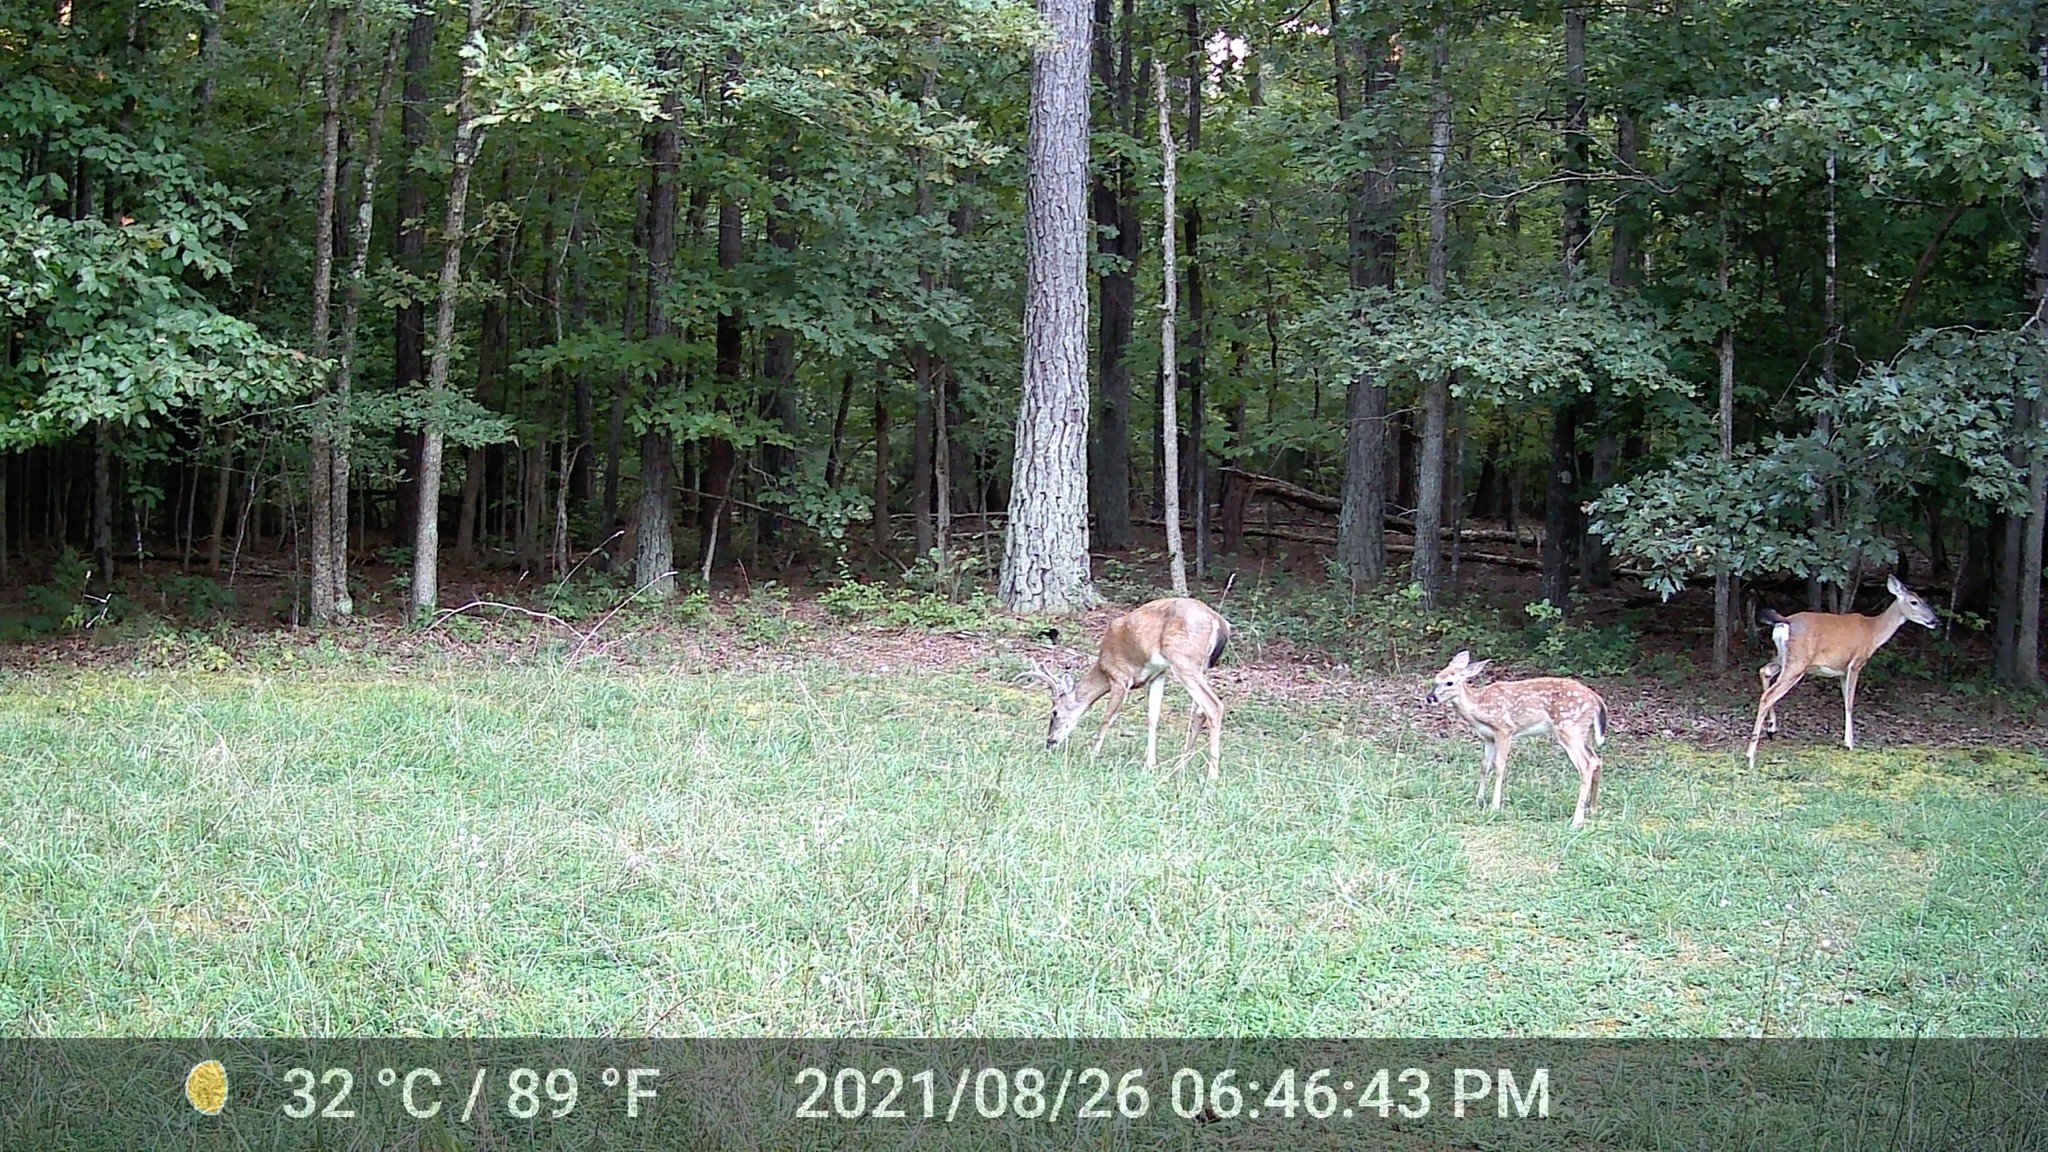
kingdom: Animalia
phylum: Chordata
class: Mammalia
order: Artiodactyla
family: Cervidae
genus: Odocoileus
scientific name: Odocoileus virginianus
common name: White-tailed deer
